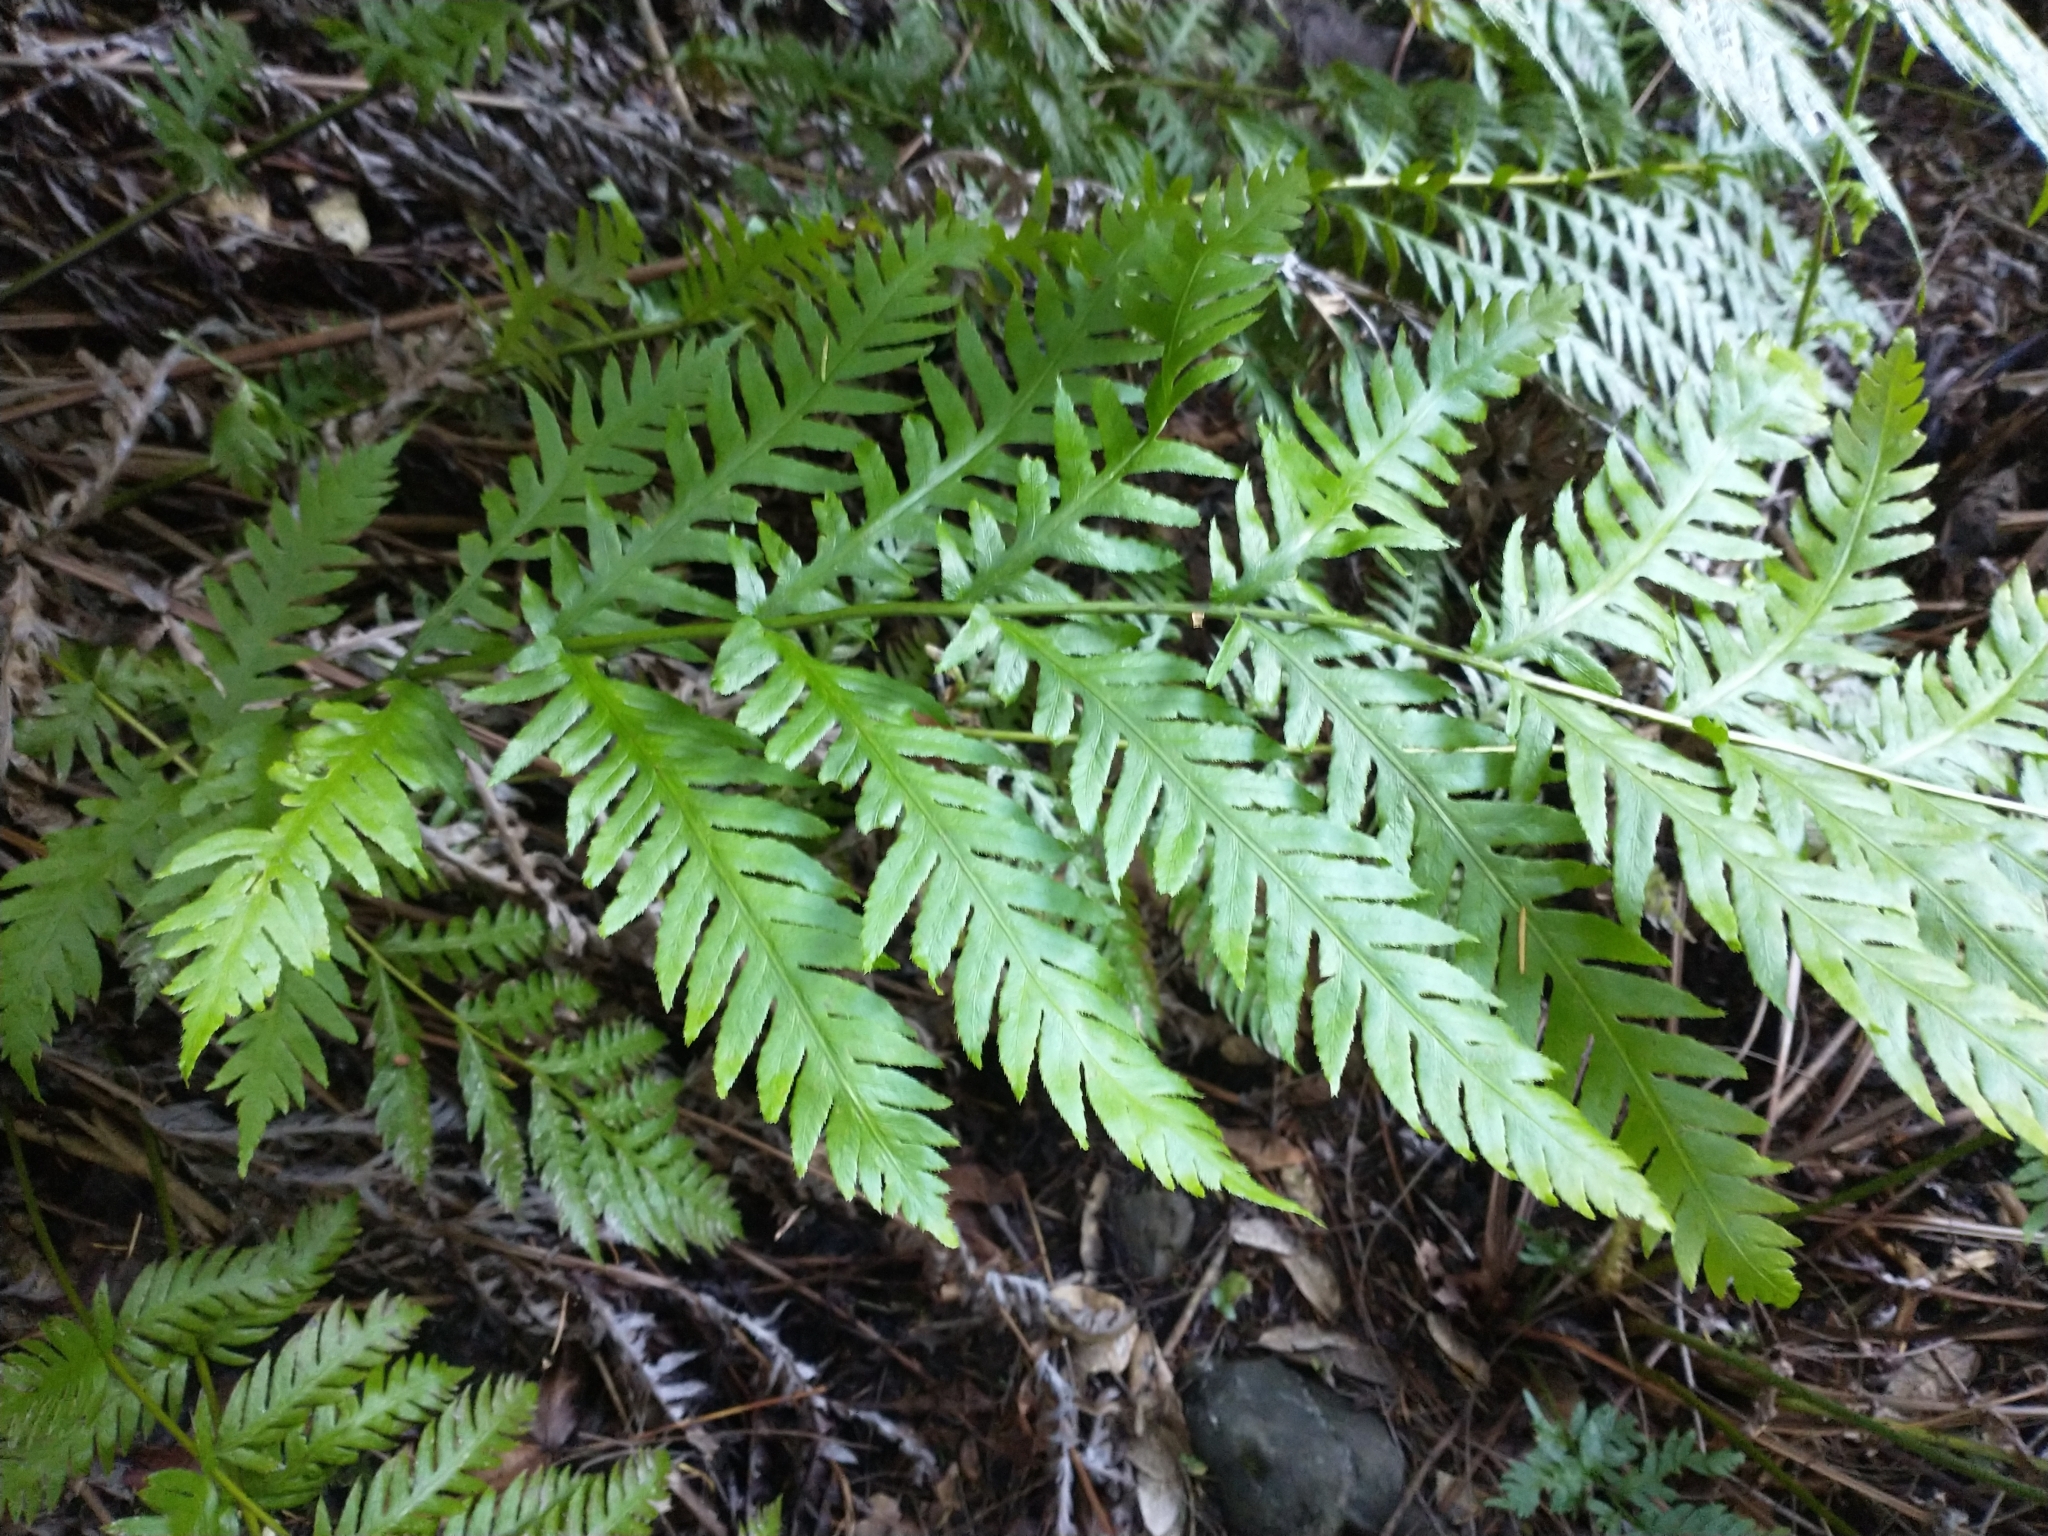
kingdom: Plantae
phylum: Tracheophyta
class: Polypodiopsida
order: Polypodiales
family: Blechnaceae
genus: Woodwardia
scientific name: Woodwardia fimbriata
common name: Giant chain fern
